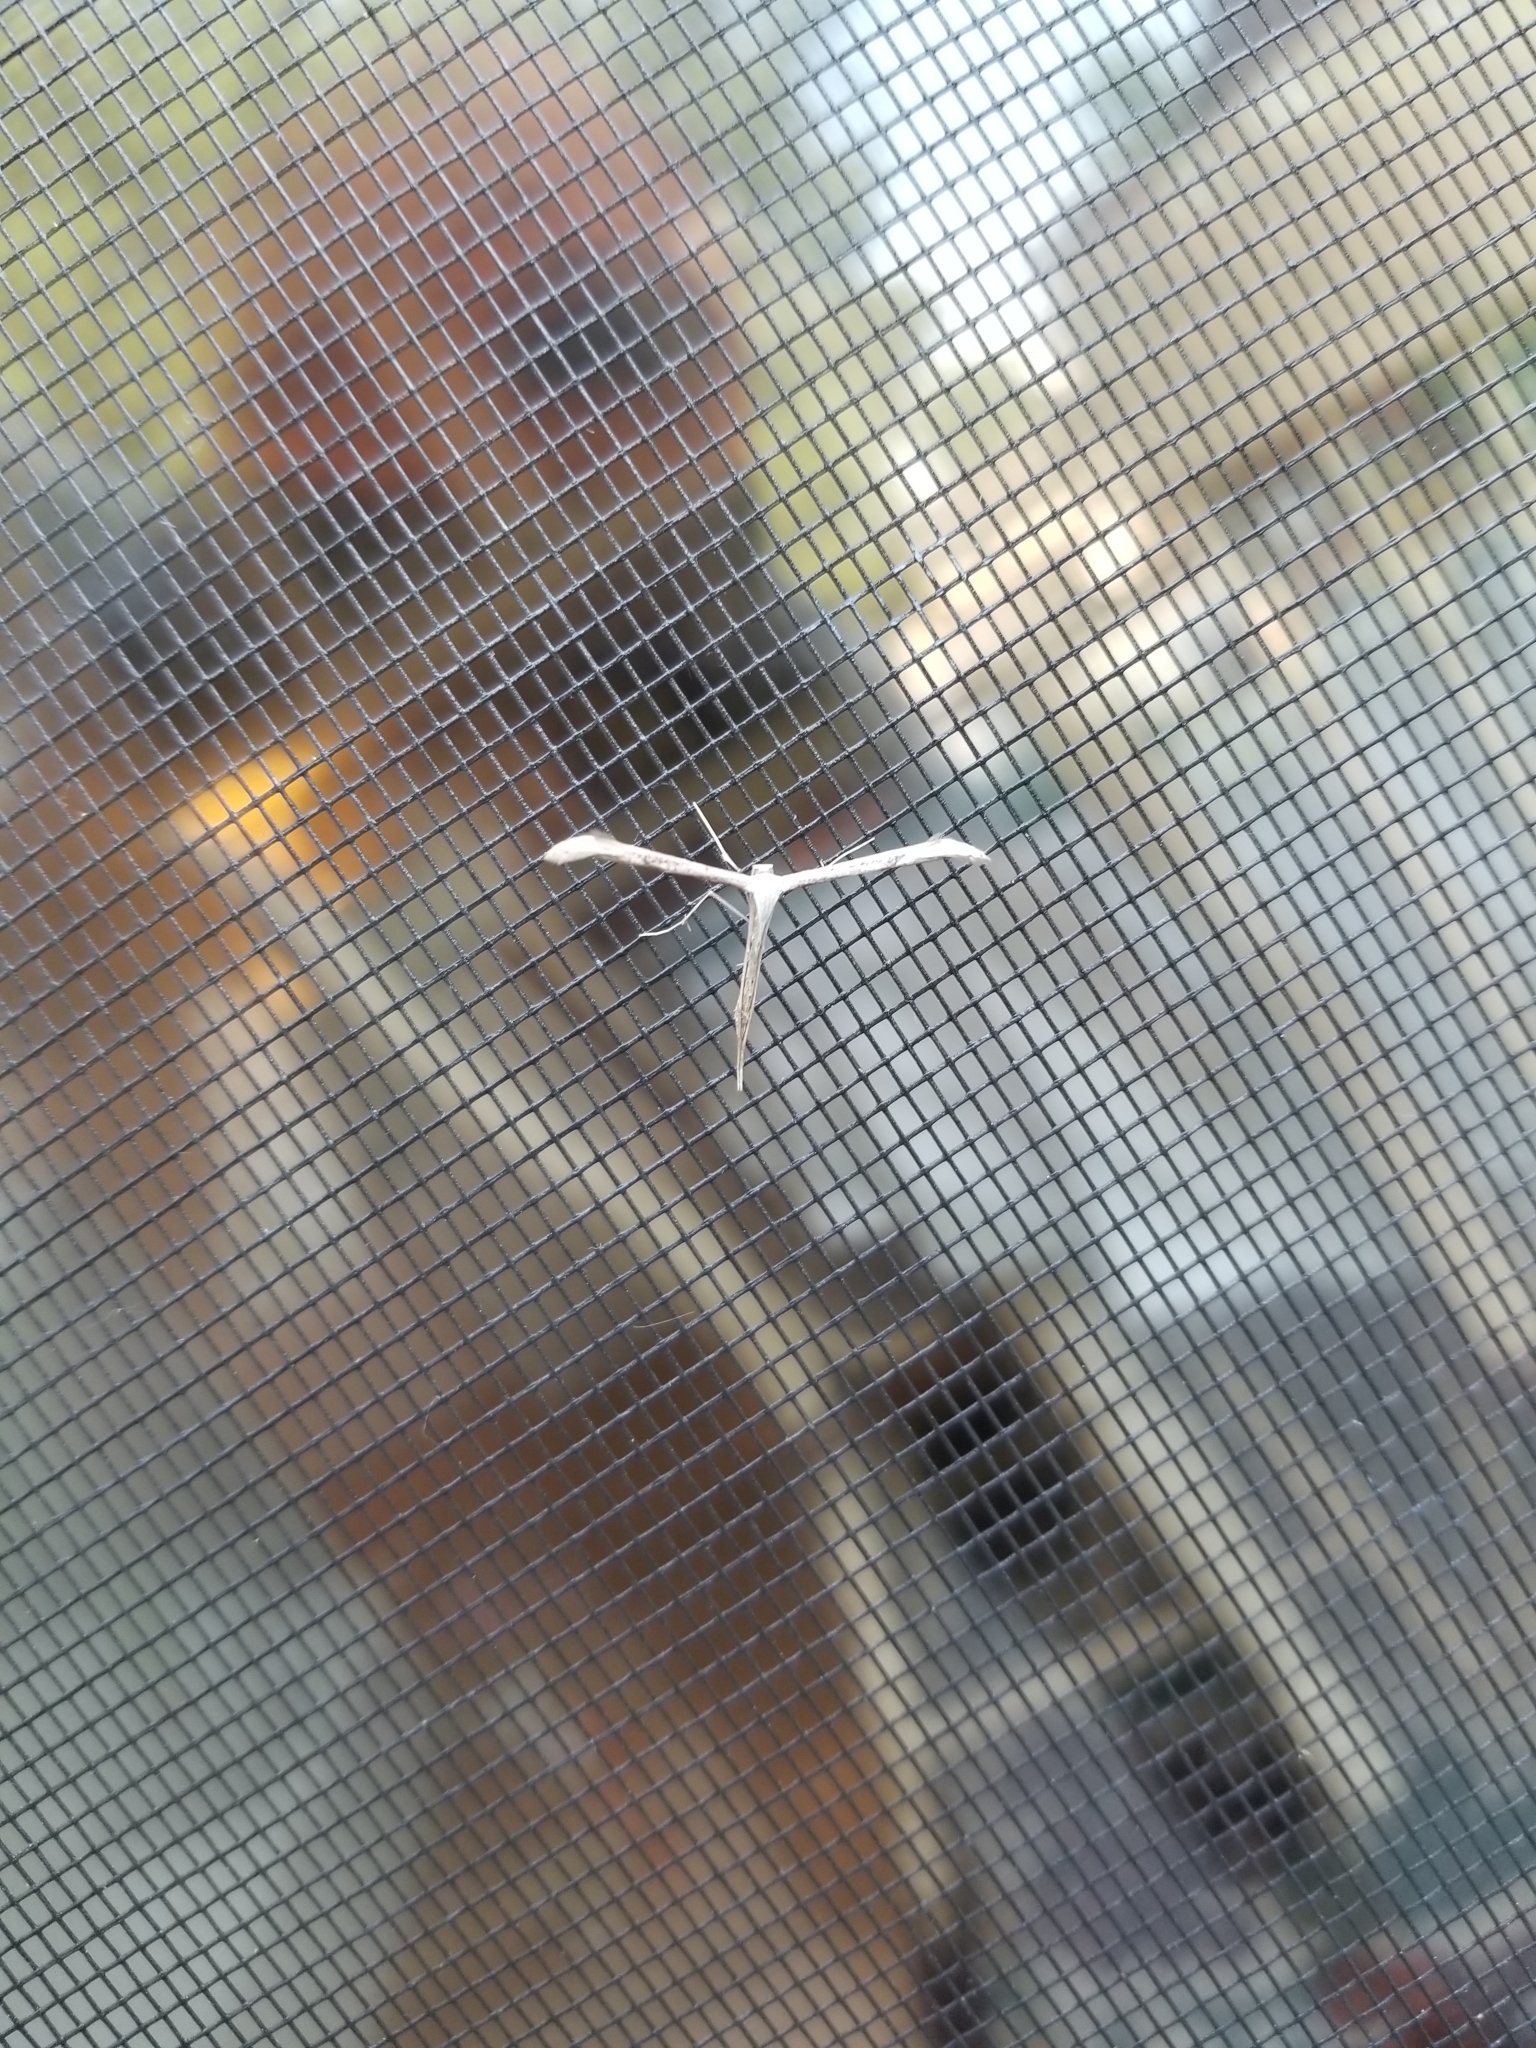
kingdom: Animalia
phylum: Arthropoda
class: Insecta
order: Lepidoptera
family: Pterophoridae
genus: Emmelina
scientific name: Emmelina monodactyla
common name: Common plume
